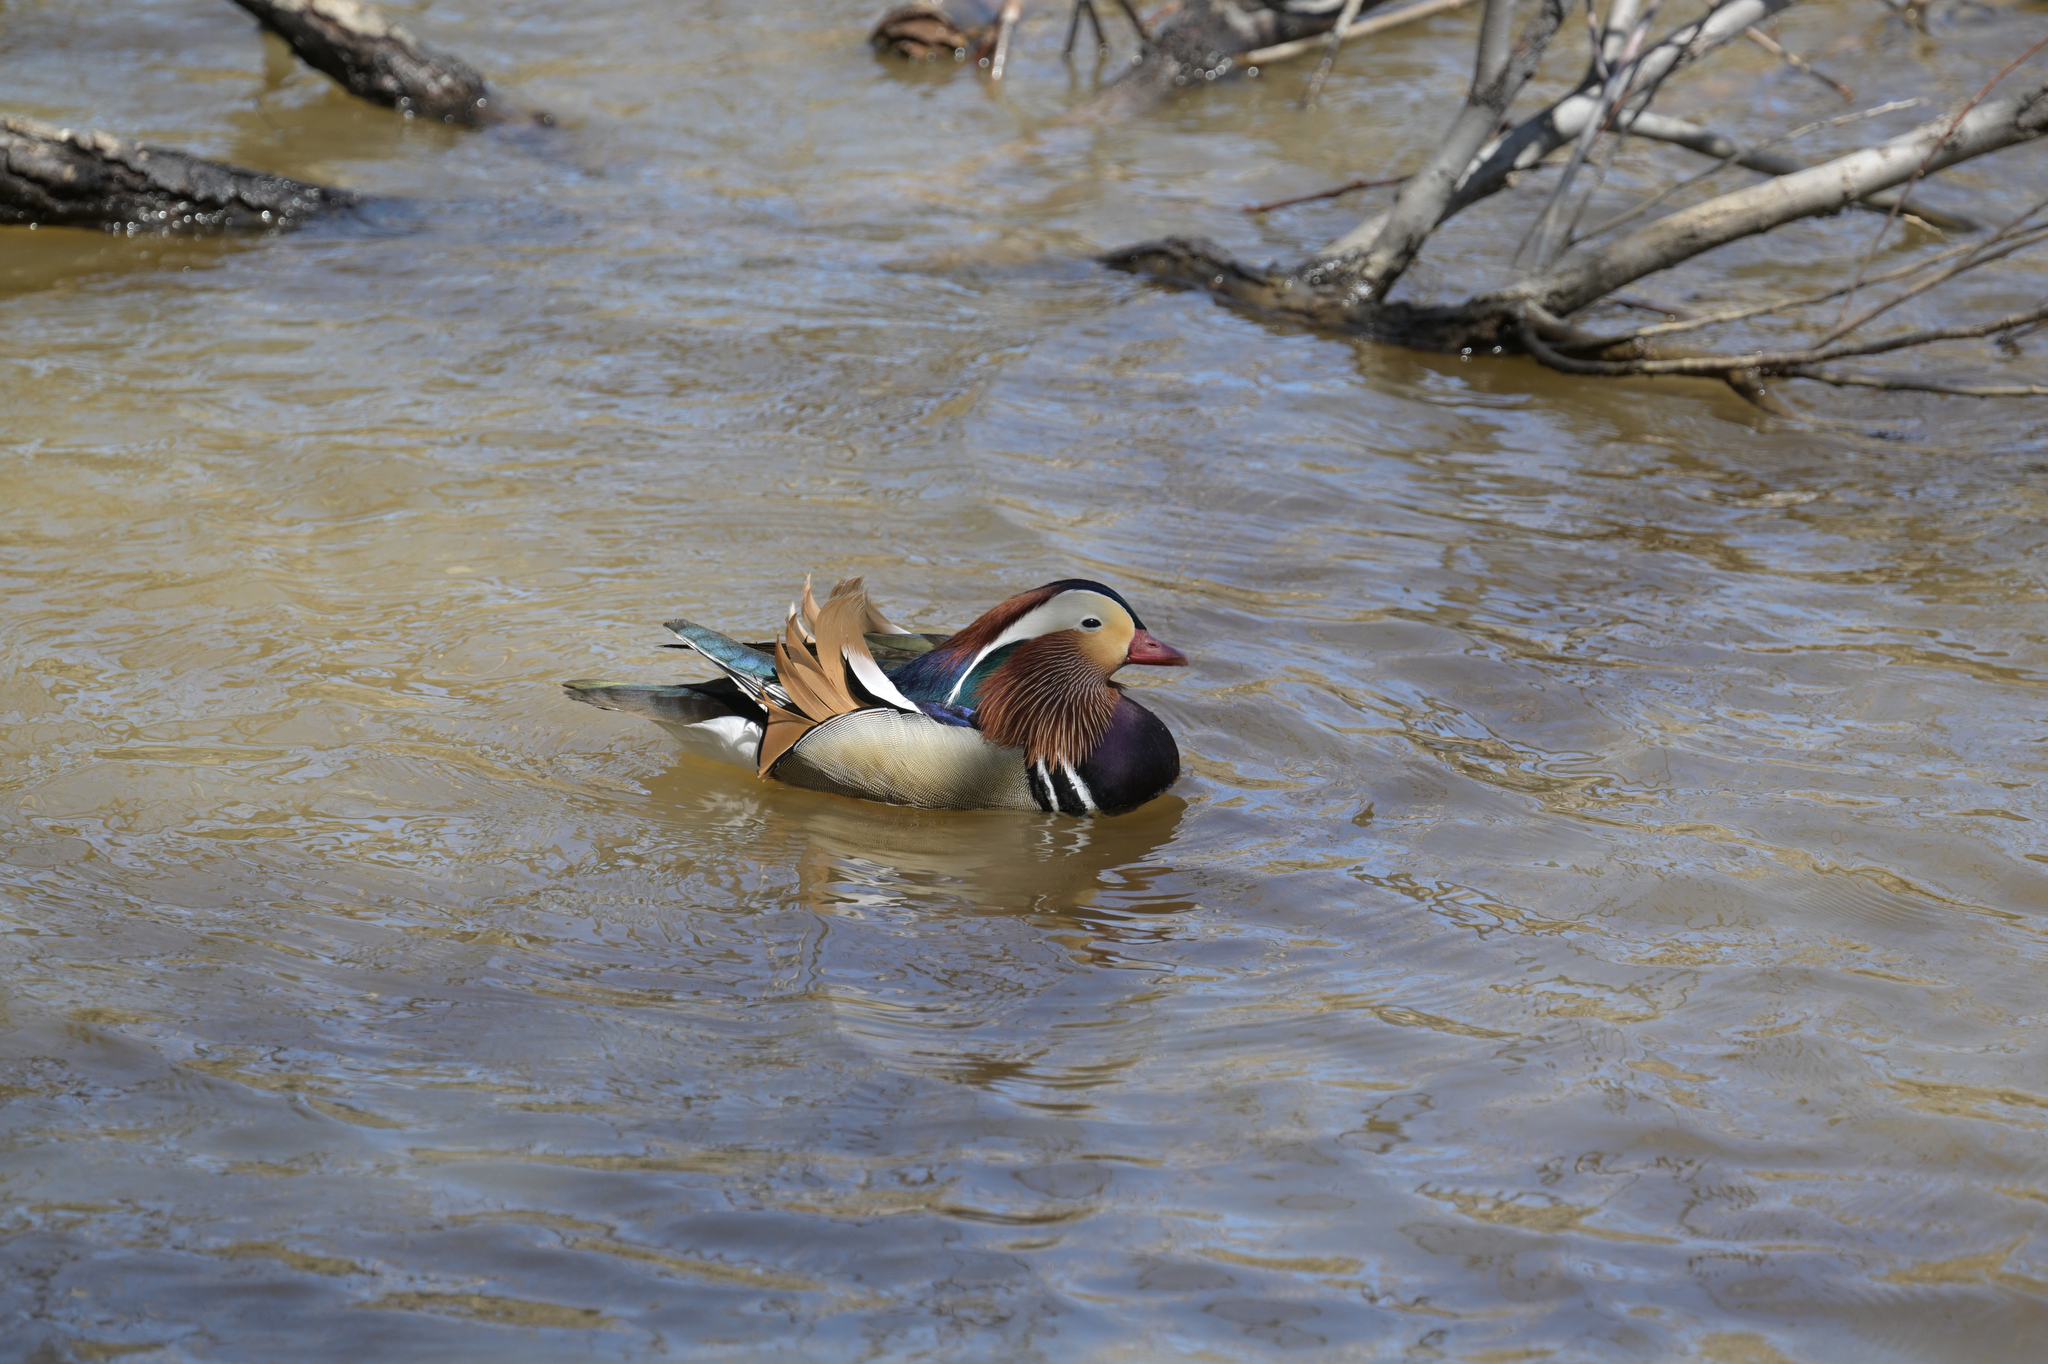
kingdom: Animalia
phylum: Chordata
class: Aves
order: Anseriformes
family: Anatidae
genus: Aix
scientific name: Aix galericulata
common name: Mandarin duck
